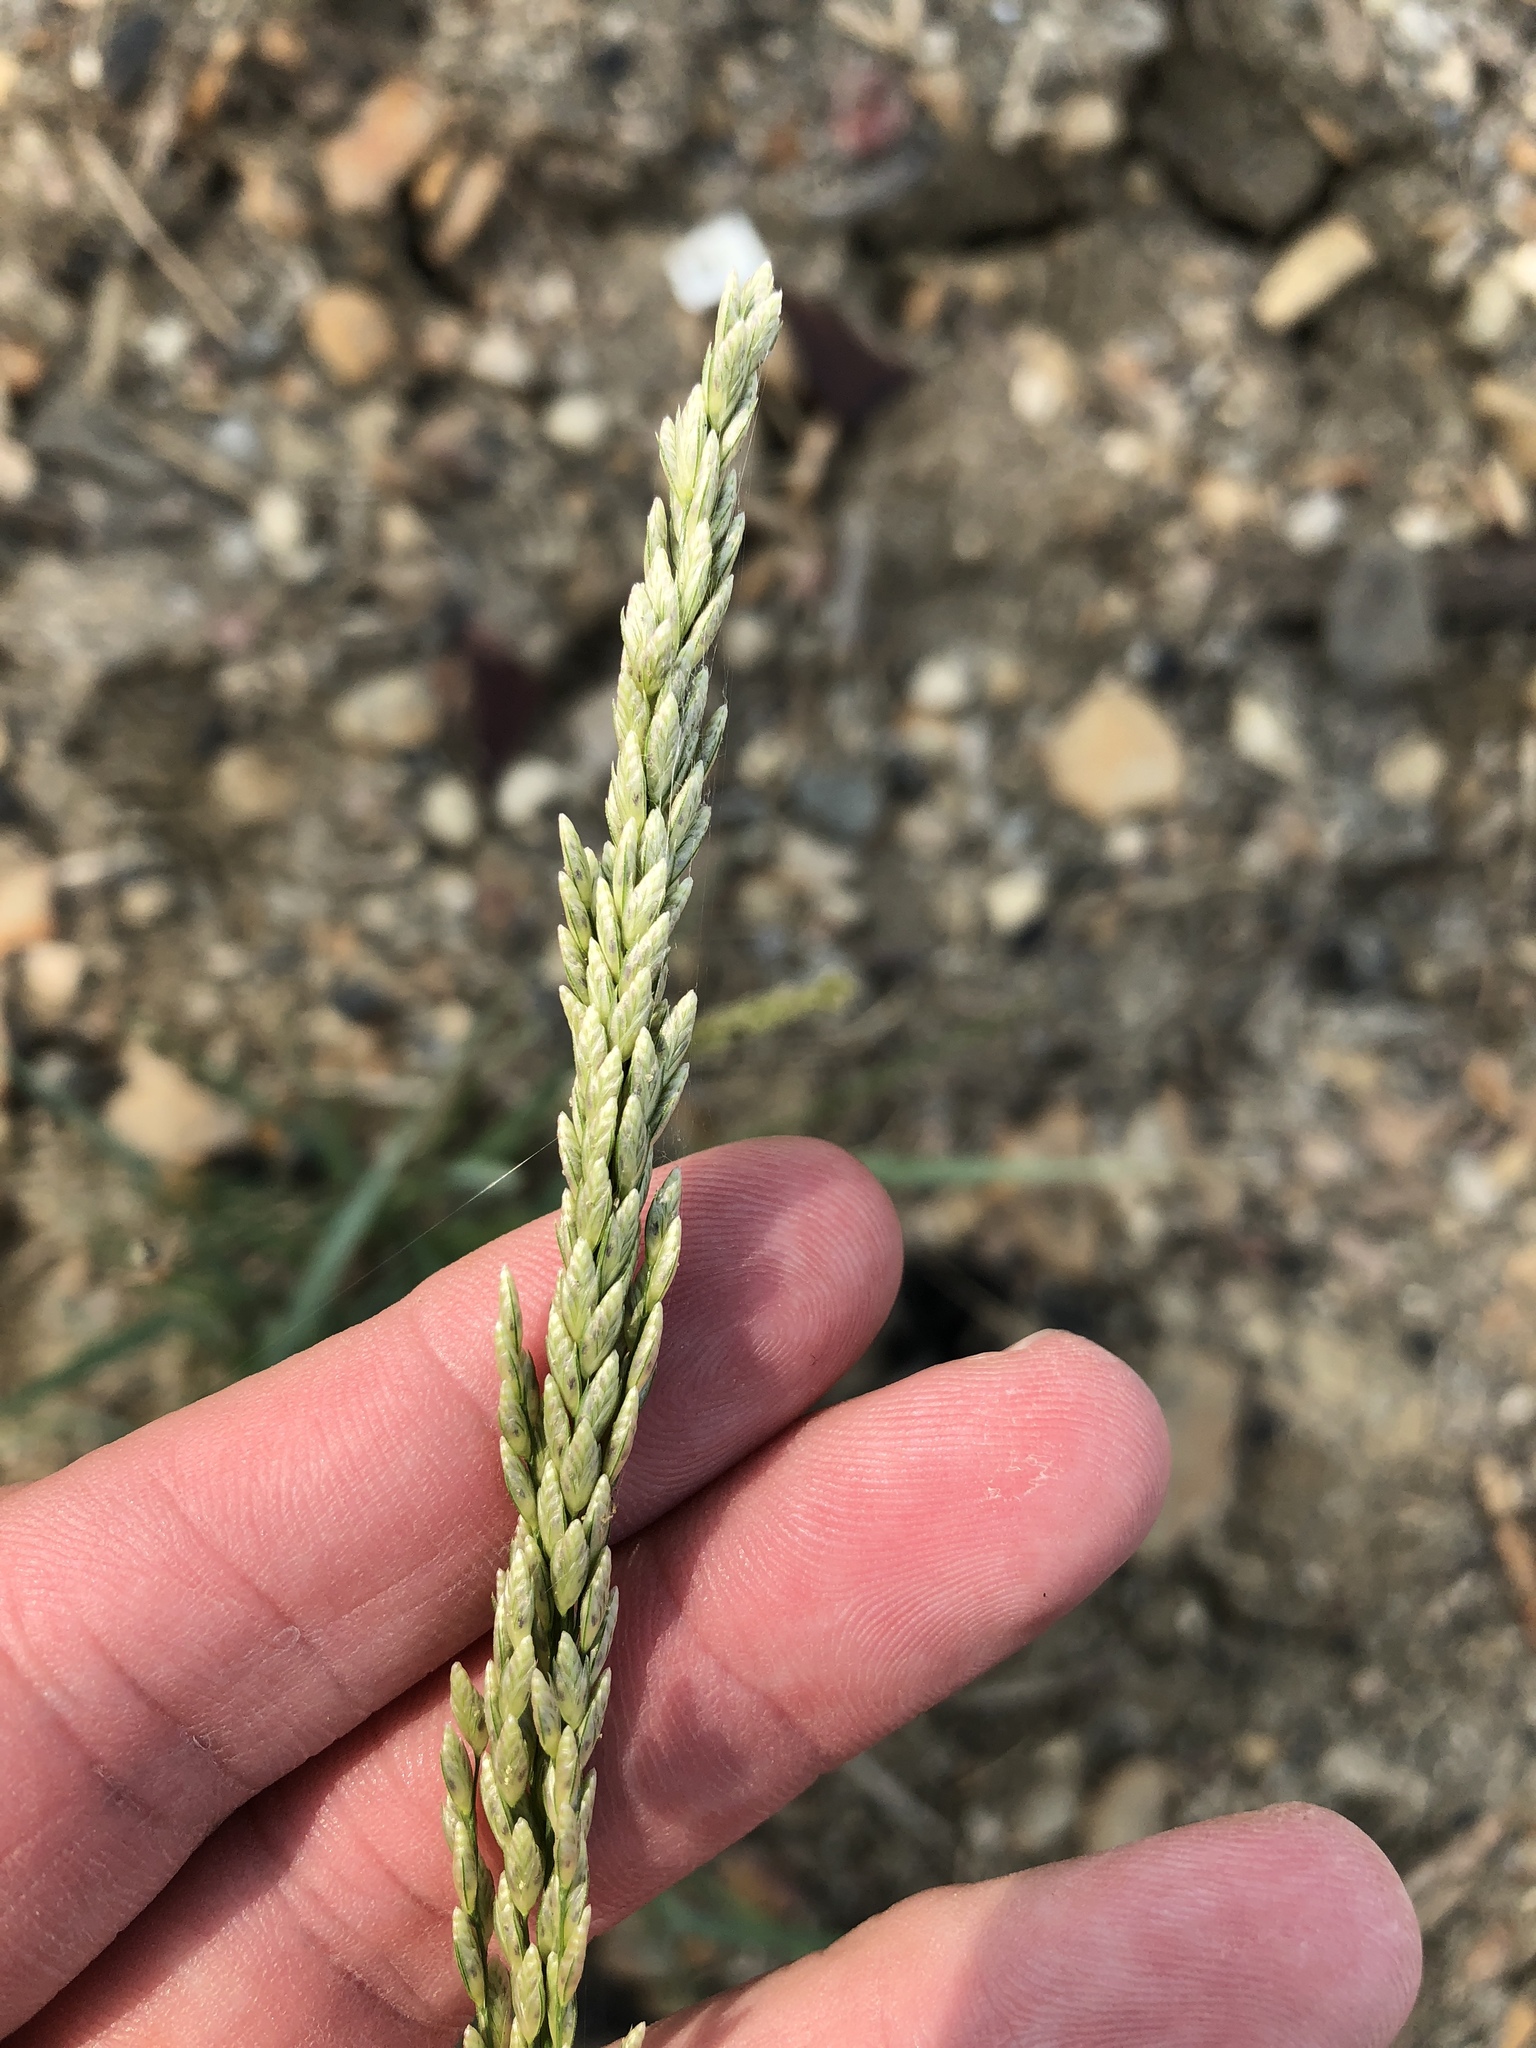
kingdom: Plantae
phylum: Tracheophyta
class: Liliopsida
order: Poales
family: Poaceae
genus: Tridens
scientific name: Tridens albescens
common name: White tridens
